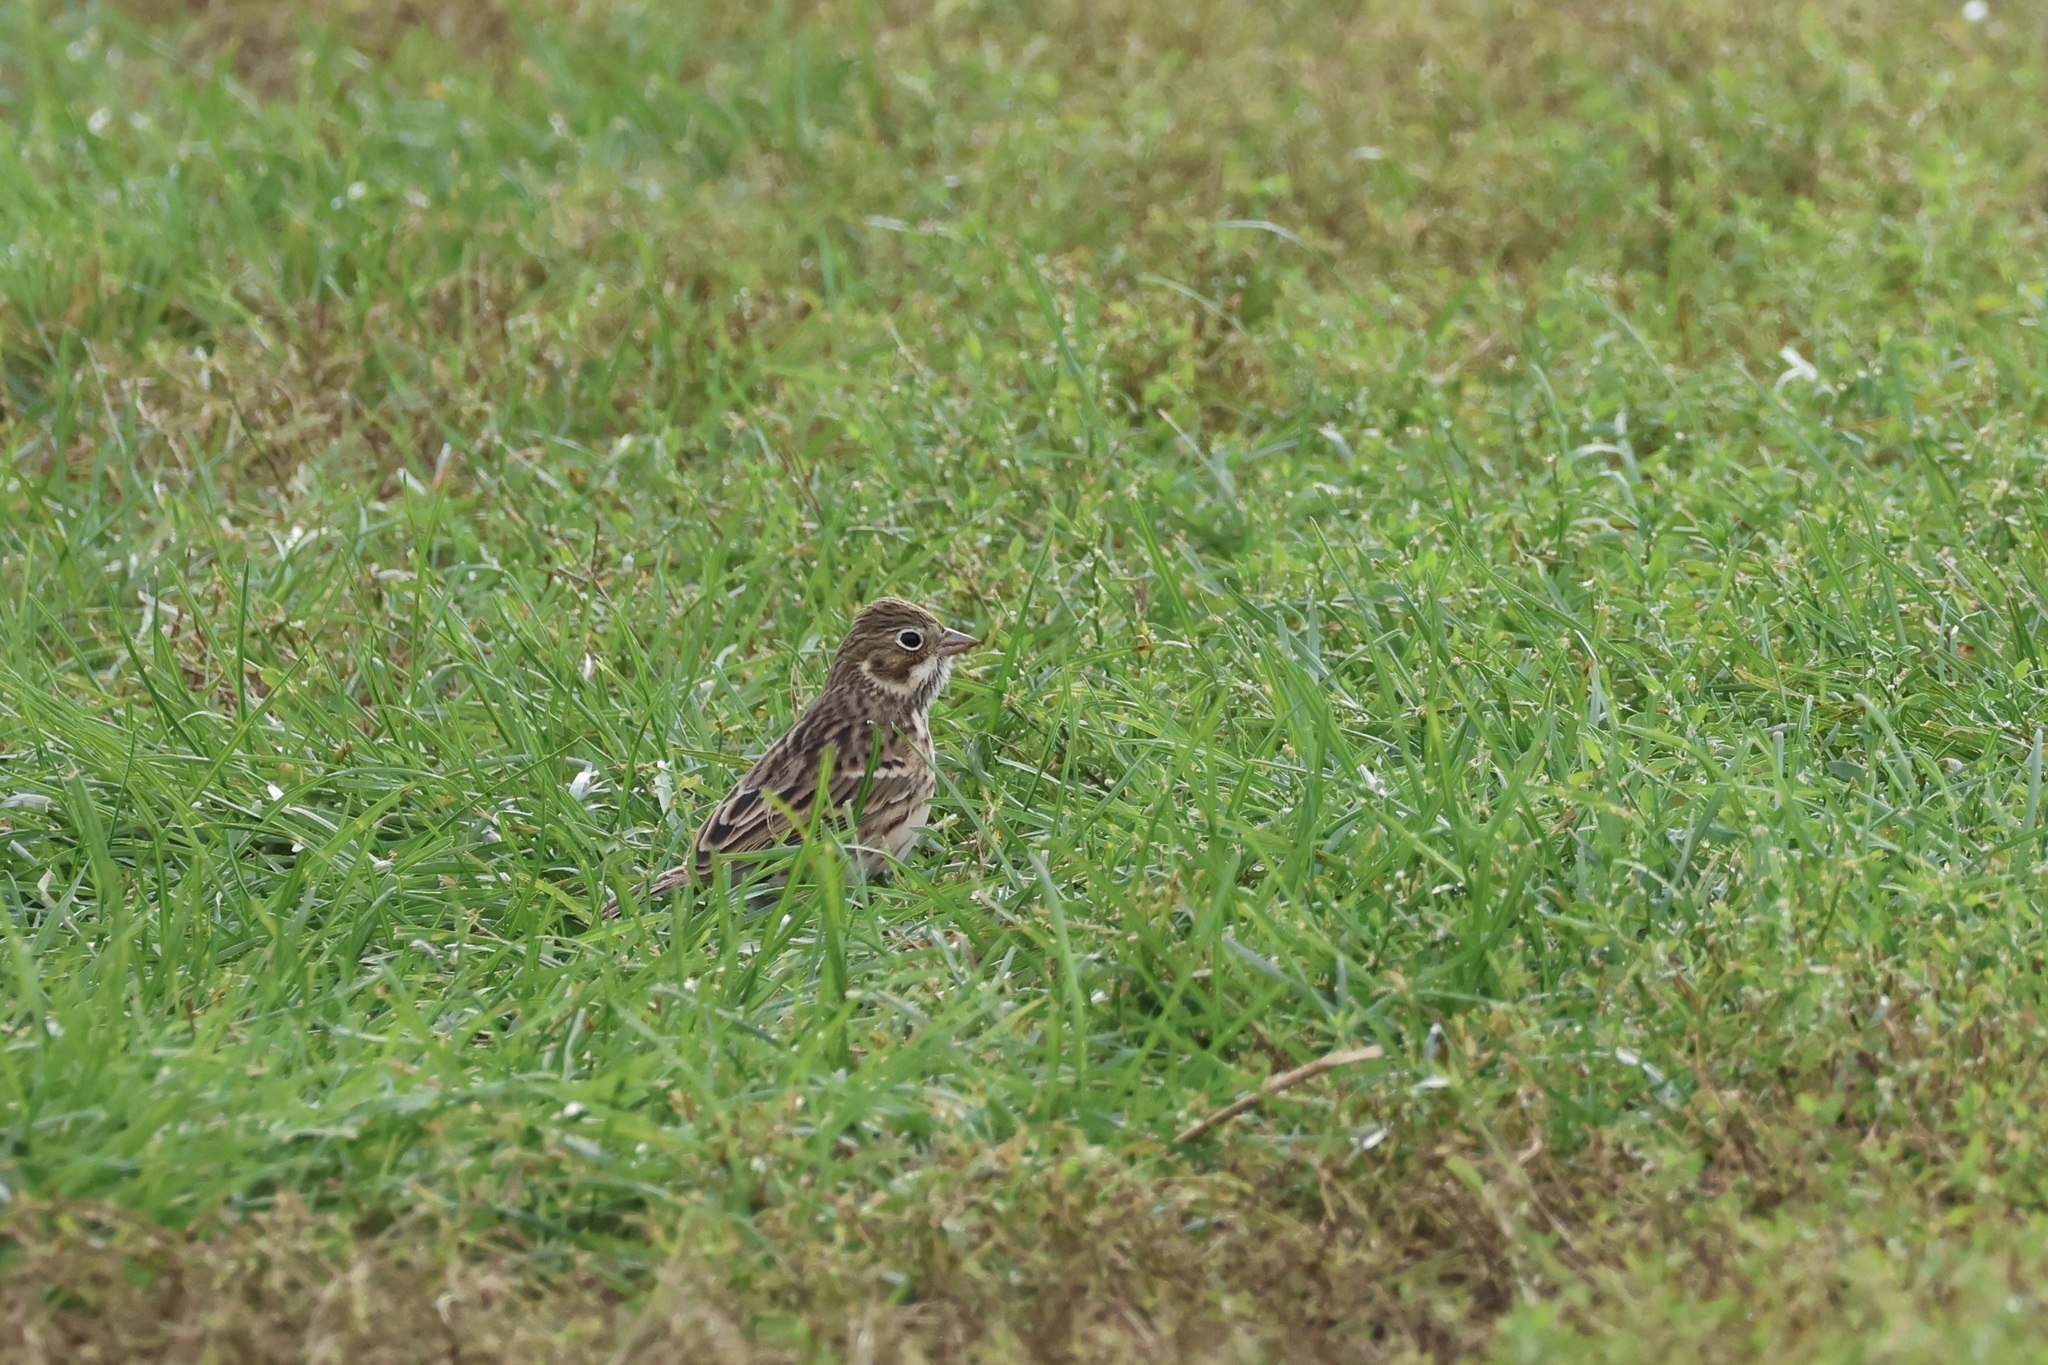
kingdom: Animalia
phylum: Chordata
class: Aves
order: Passeriformes
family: Passerellidae
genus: Pooecetes
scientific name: Pooecetes gramineus
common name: Vesper sparrow
